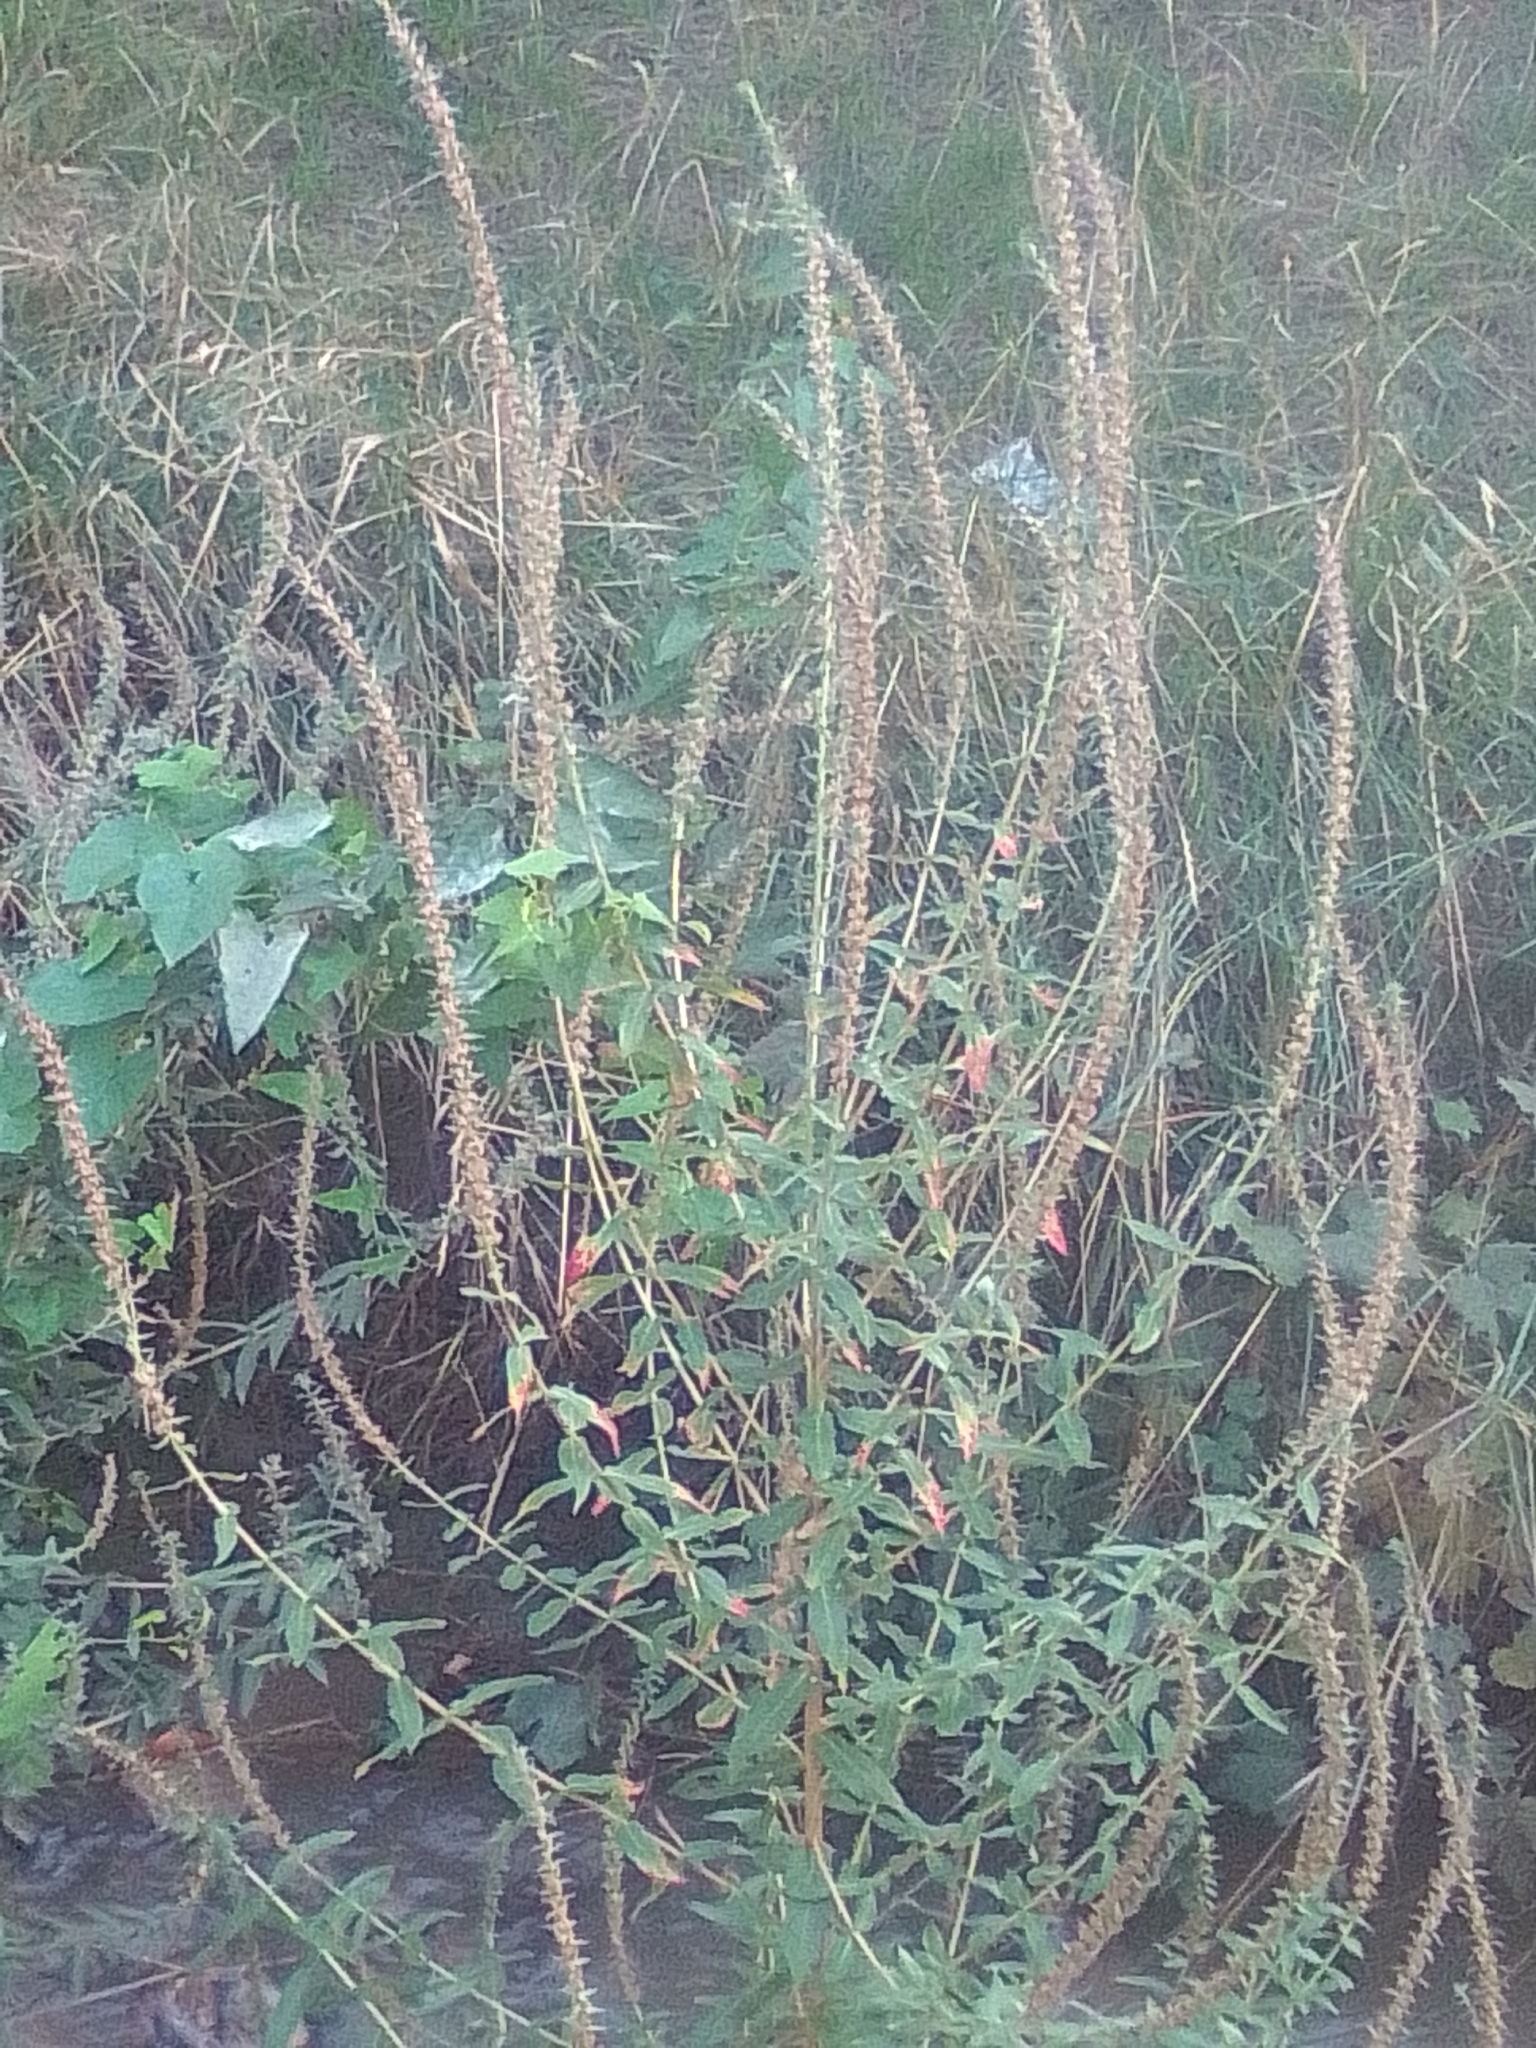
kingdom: Plantae
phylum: Tracheophyta
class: Magnoliopsida
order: Myrtales
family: Lythraceae
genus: Lythrum
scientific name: Lythrum salicaria
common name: Purple loosestrife
